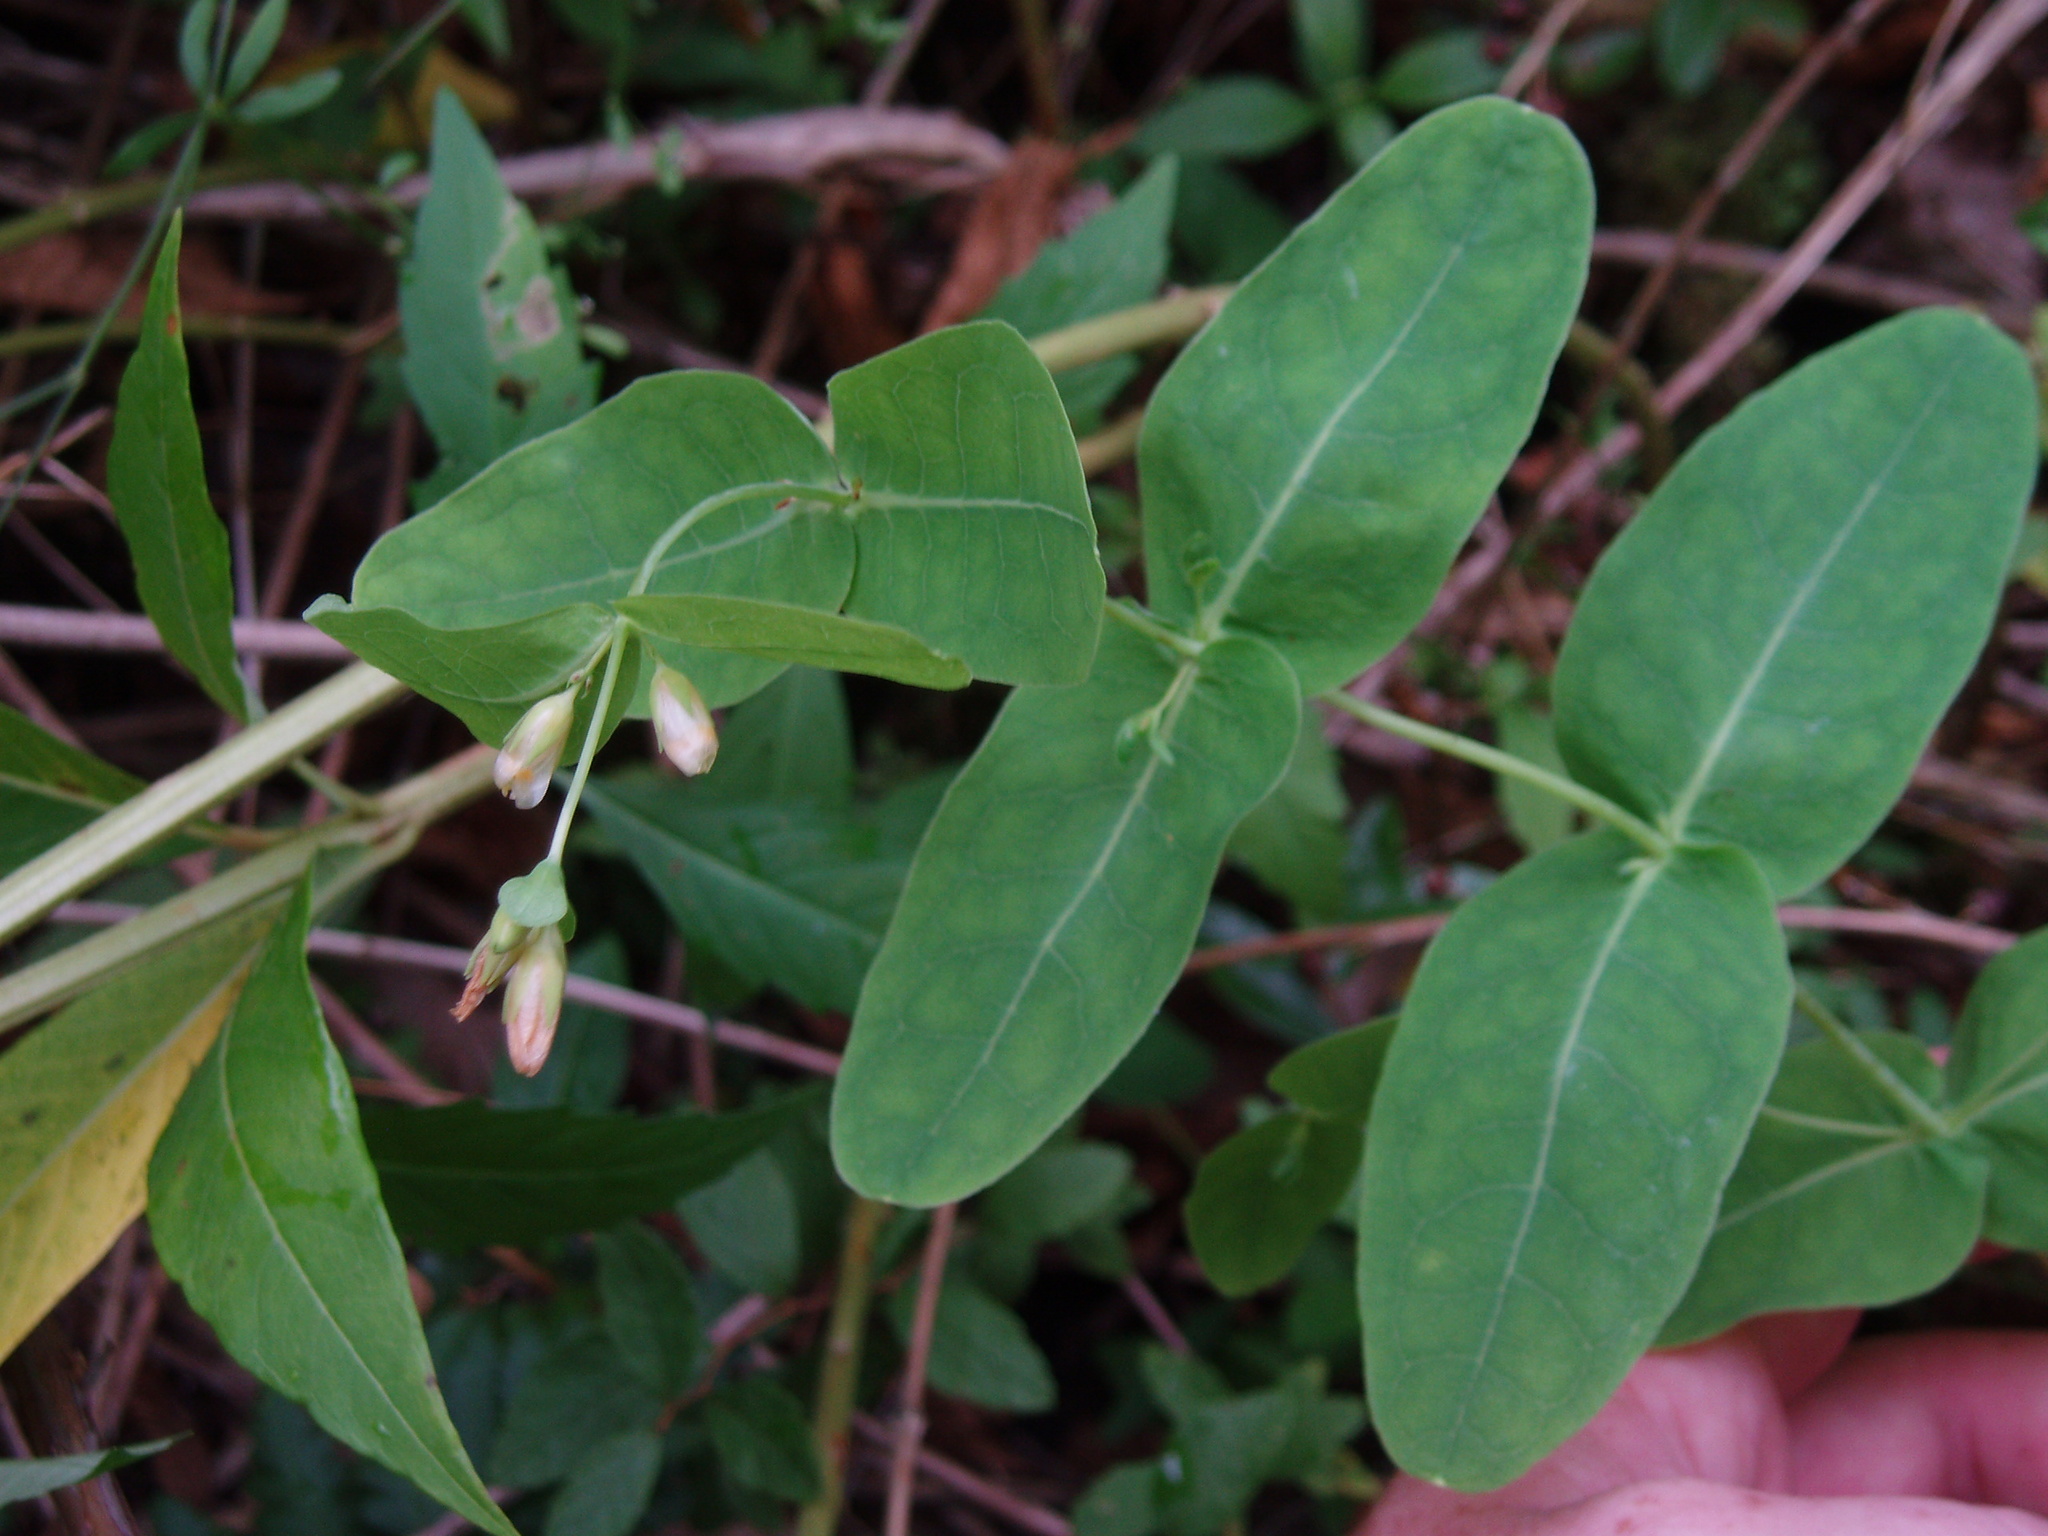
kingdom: Plantae
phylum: Tracheophyta
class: Magnoliopsida
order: Malpighiales
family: Hypericaceae
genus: Triadenum
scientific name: Triadenum virginicum
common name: Marsh st. john's-wort
